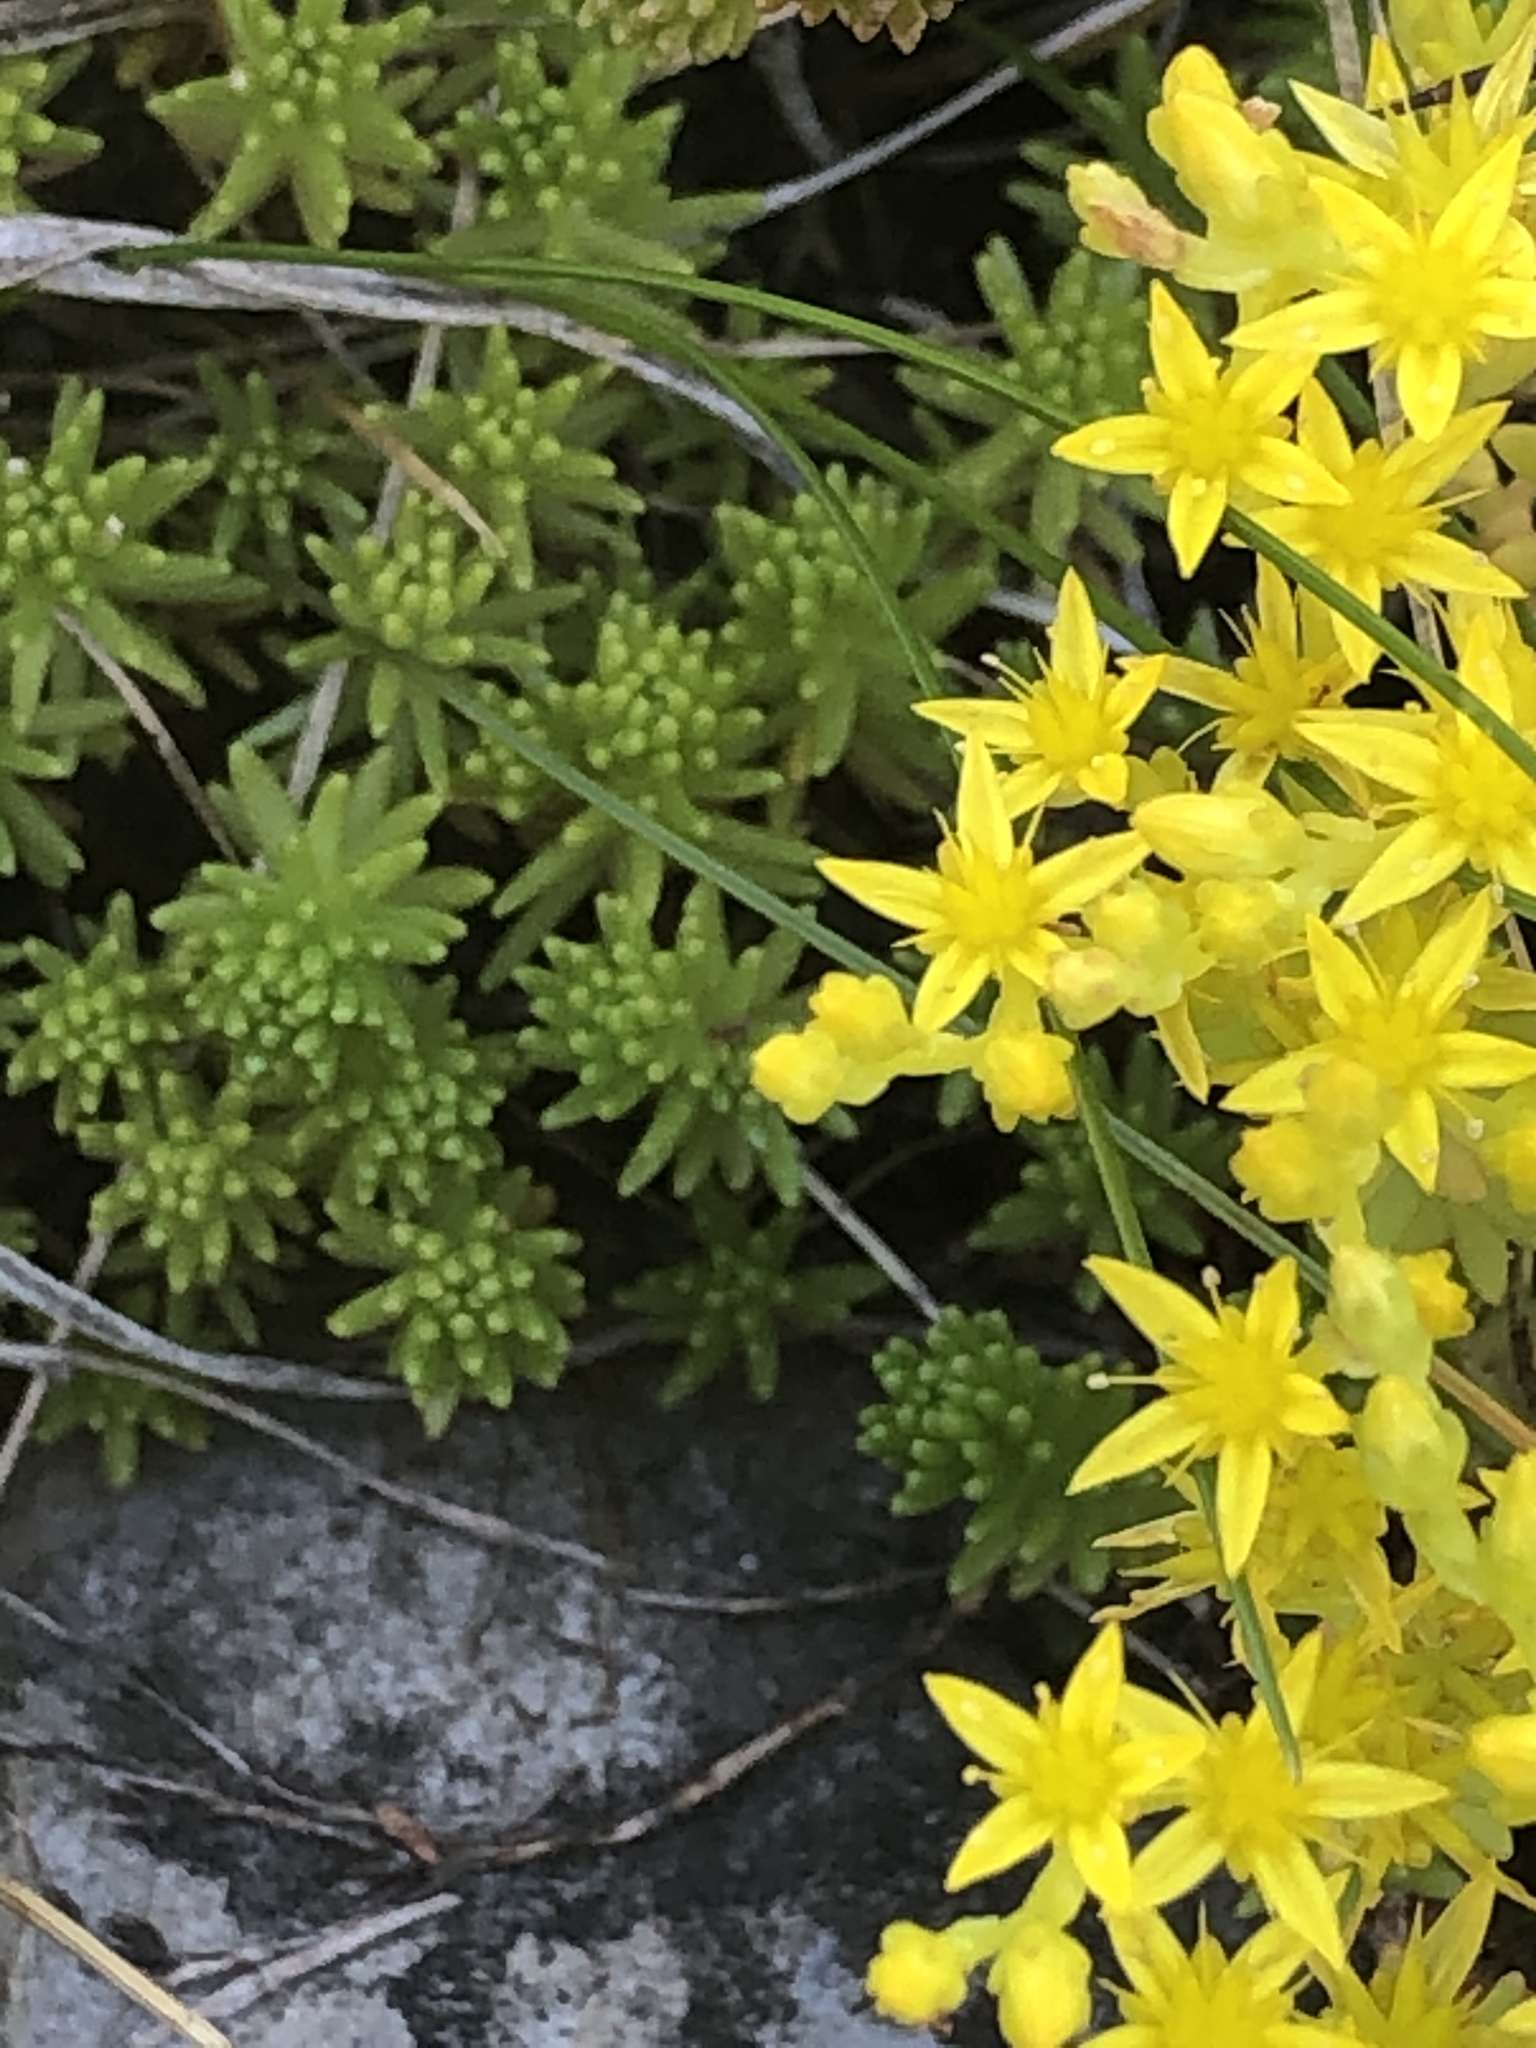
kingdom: Plantae
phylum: Tracheophyta
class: Magnoliopsida
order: Saxifragales
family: Crassulaceae
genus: Sedum
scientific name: Sedum sexangulare
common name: Tasteless stonecrop
